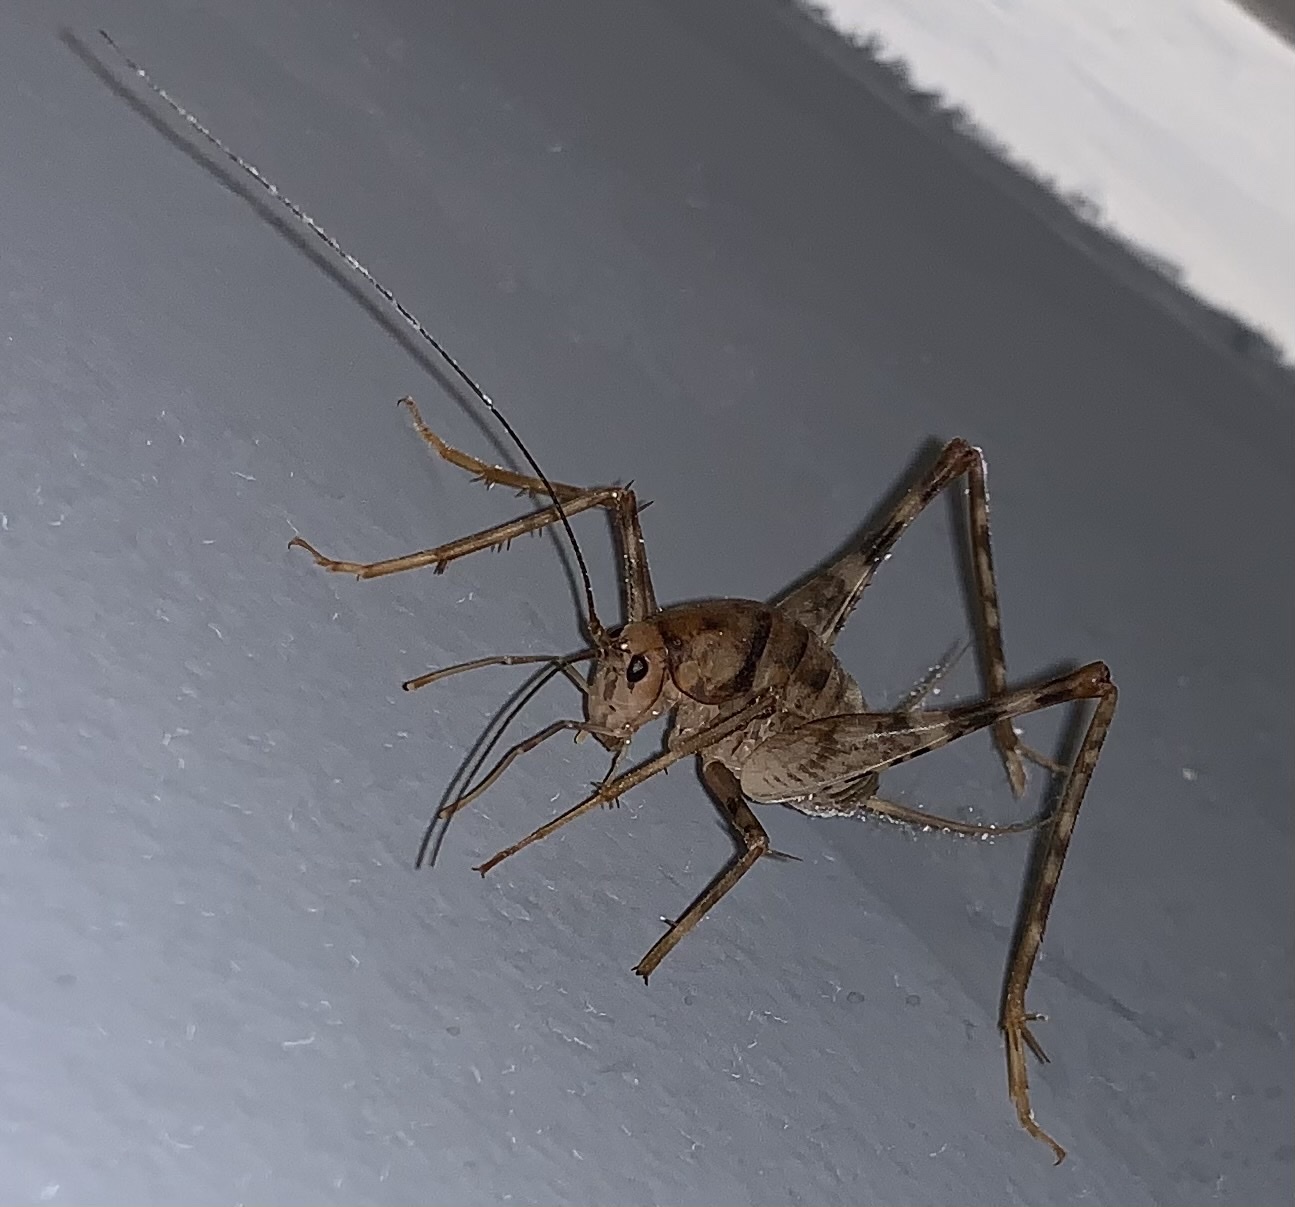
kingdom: Animalia
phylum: Arthropoda
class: Insecta
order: Orthoptera
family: Rhaphidophoridae
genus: Tachycines
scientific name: Tachycines asynamorus
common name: Greenhouse camel cricket
